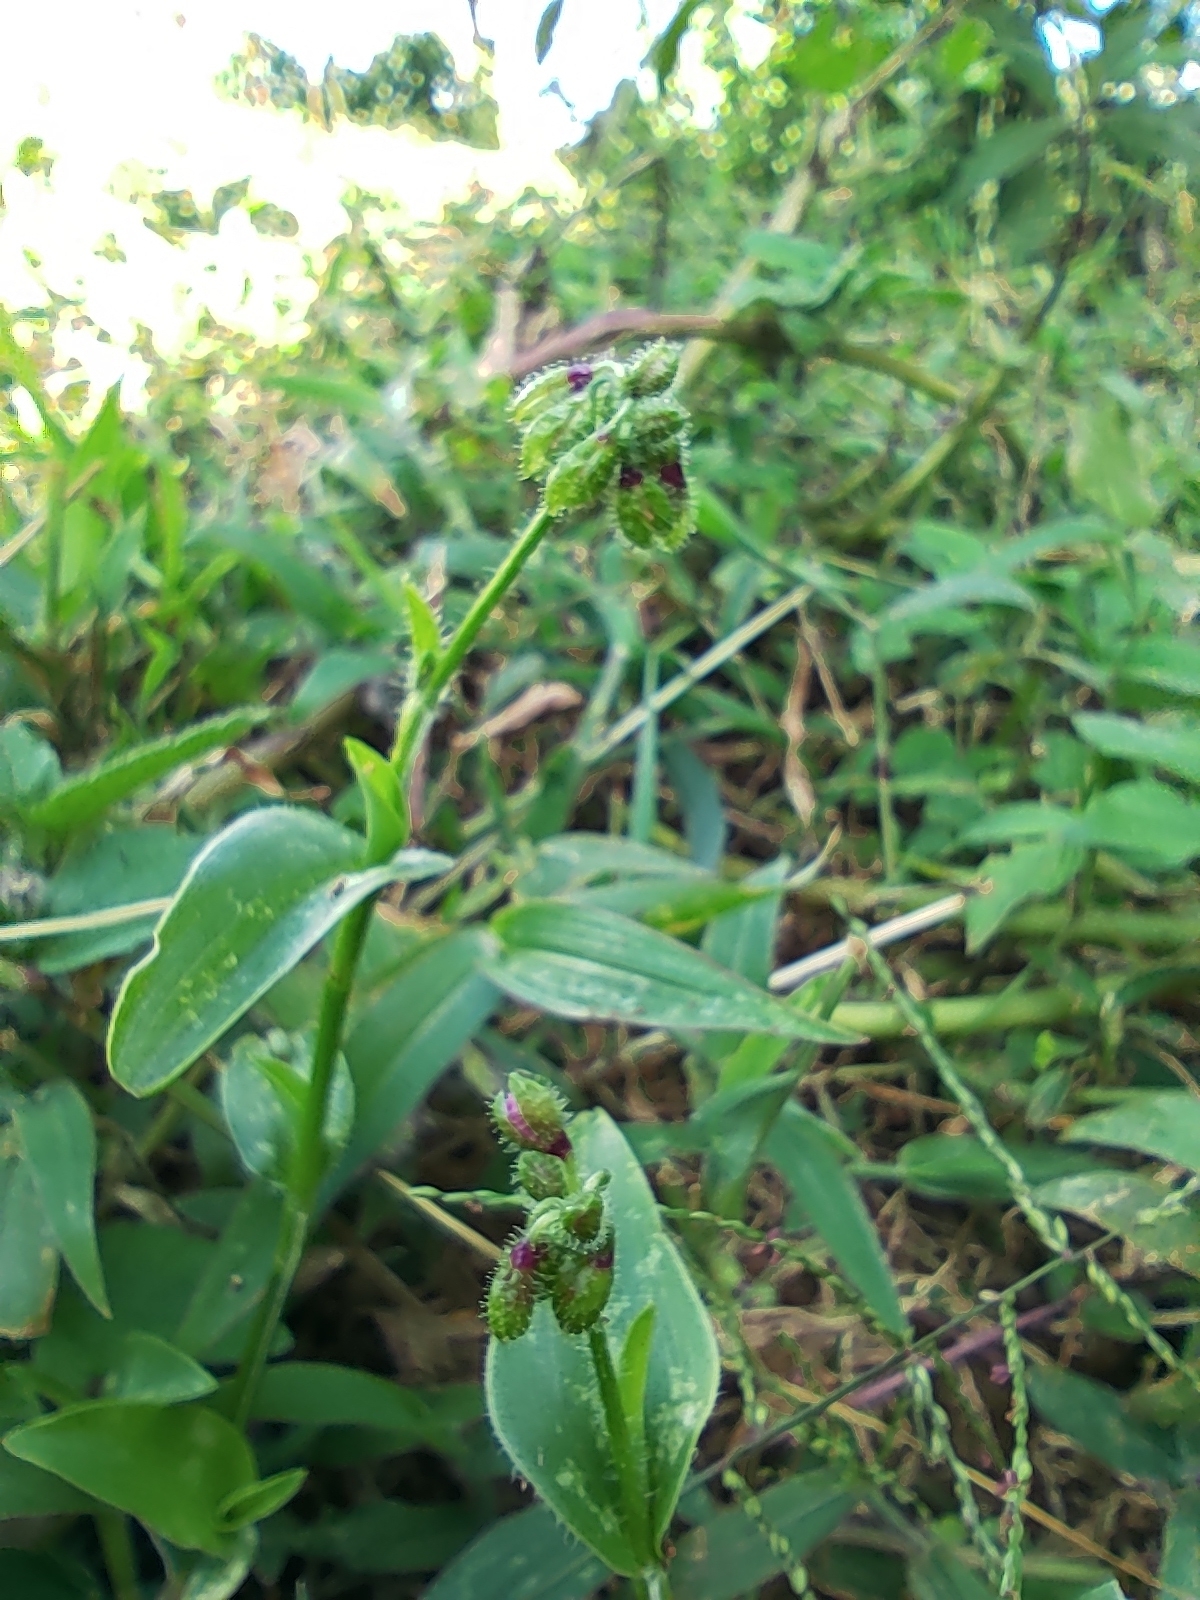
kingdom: Plantae
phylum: Tracheophyta
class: Liliopsida
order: Commelinales
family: Commelinaceae
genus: Tinantia
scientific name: Tinantia erecta
